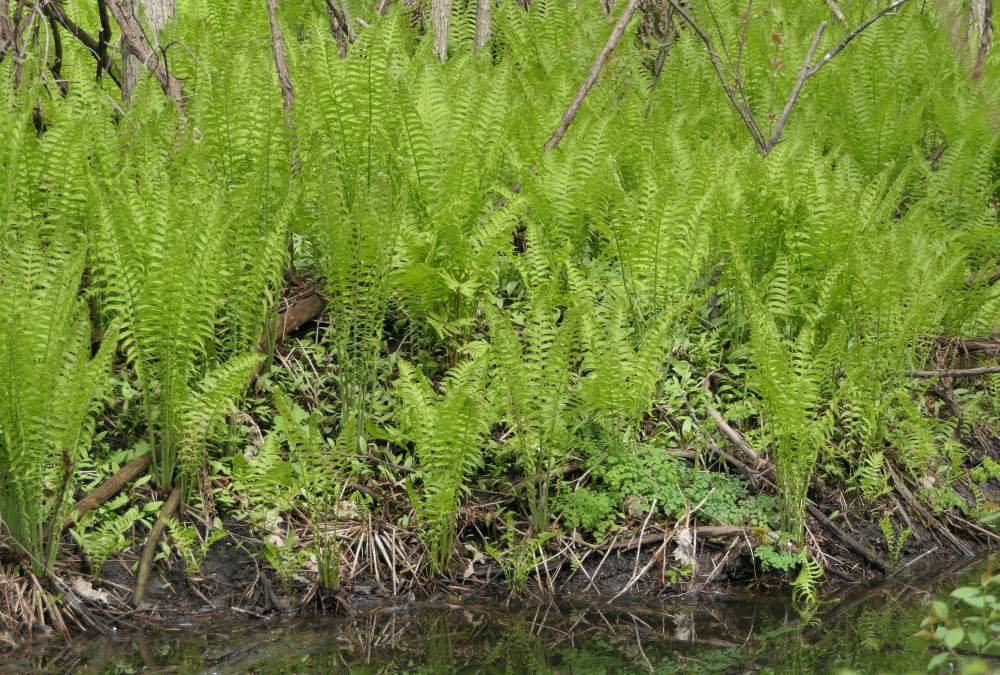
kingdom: Plantae
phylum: Tracheophyta
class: Polypodiopsida
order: Polypodiales
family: Onocleaceae
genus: Matteuccia
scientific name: Matteuccia struthiopteris
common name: Ostrich fern
